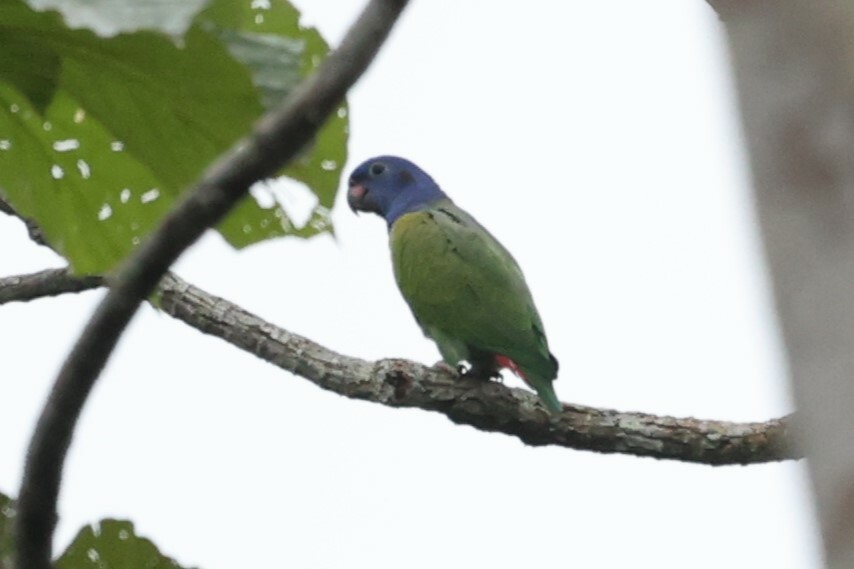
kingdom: Animalia
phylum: Chordata
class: Aves
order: Psittaciformes
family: Psittacidae
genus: Pionus
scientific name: Pionus menstruus
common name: Blue-headed parrot
